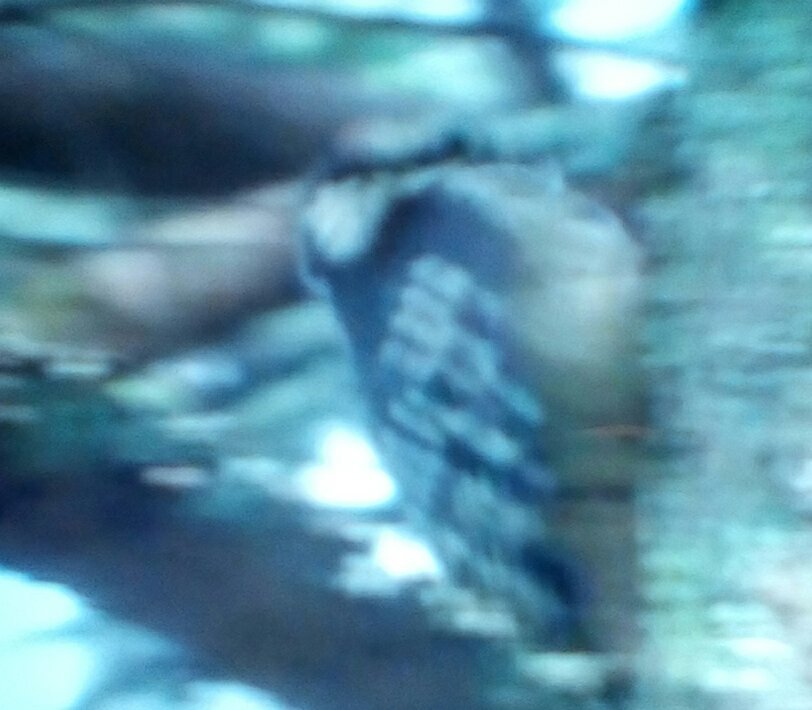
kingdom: Animalia
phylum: Chordata
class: Aves
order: Piciformes
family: Picidae
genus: Dryobates
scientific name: Dryobates
